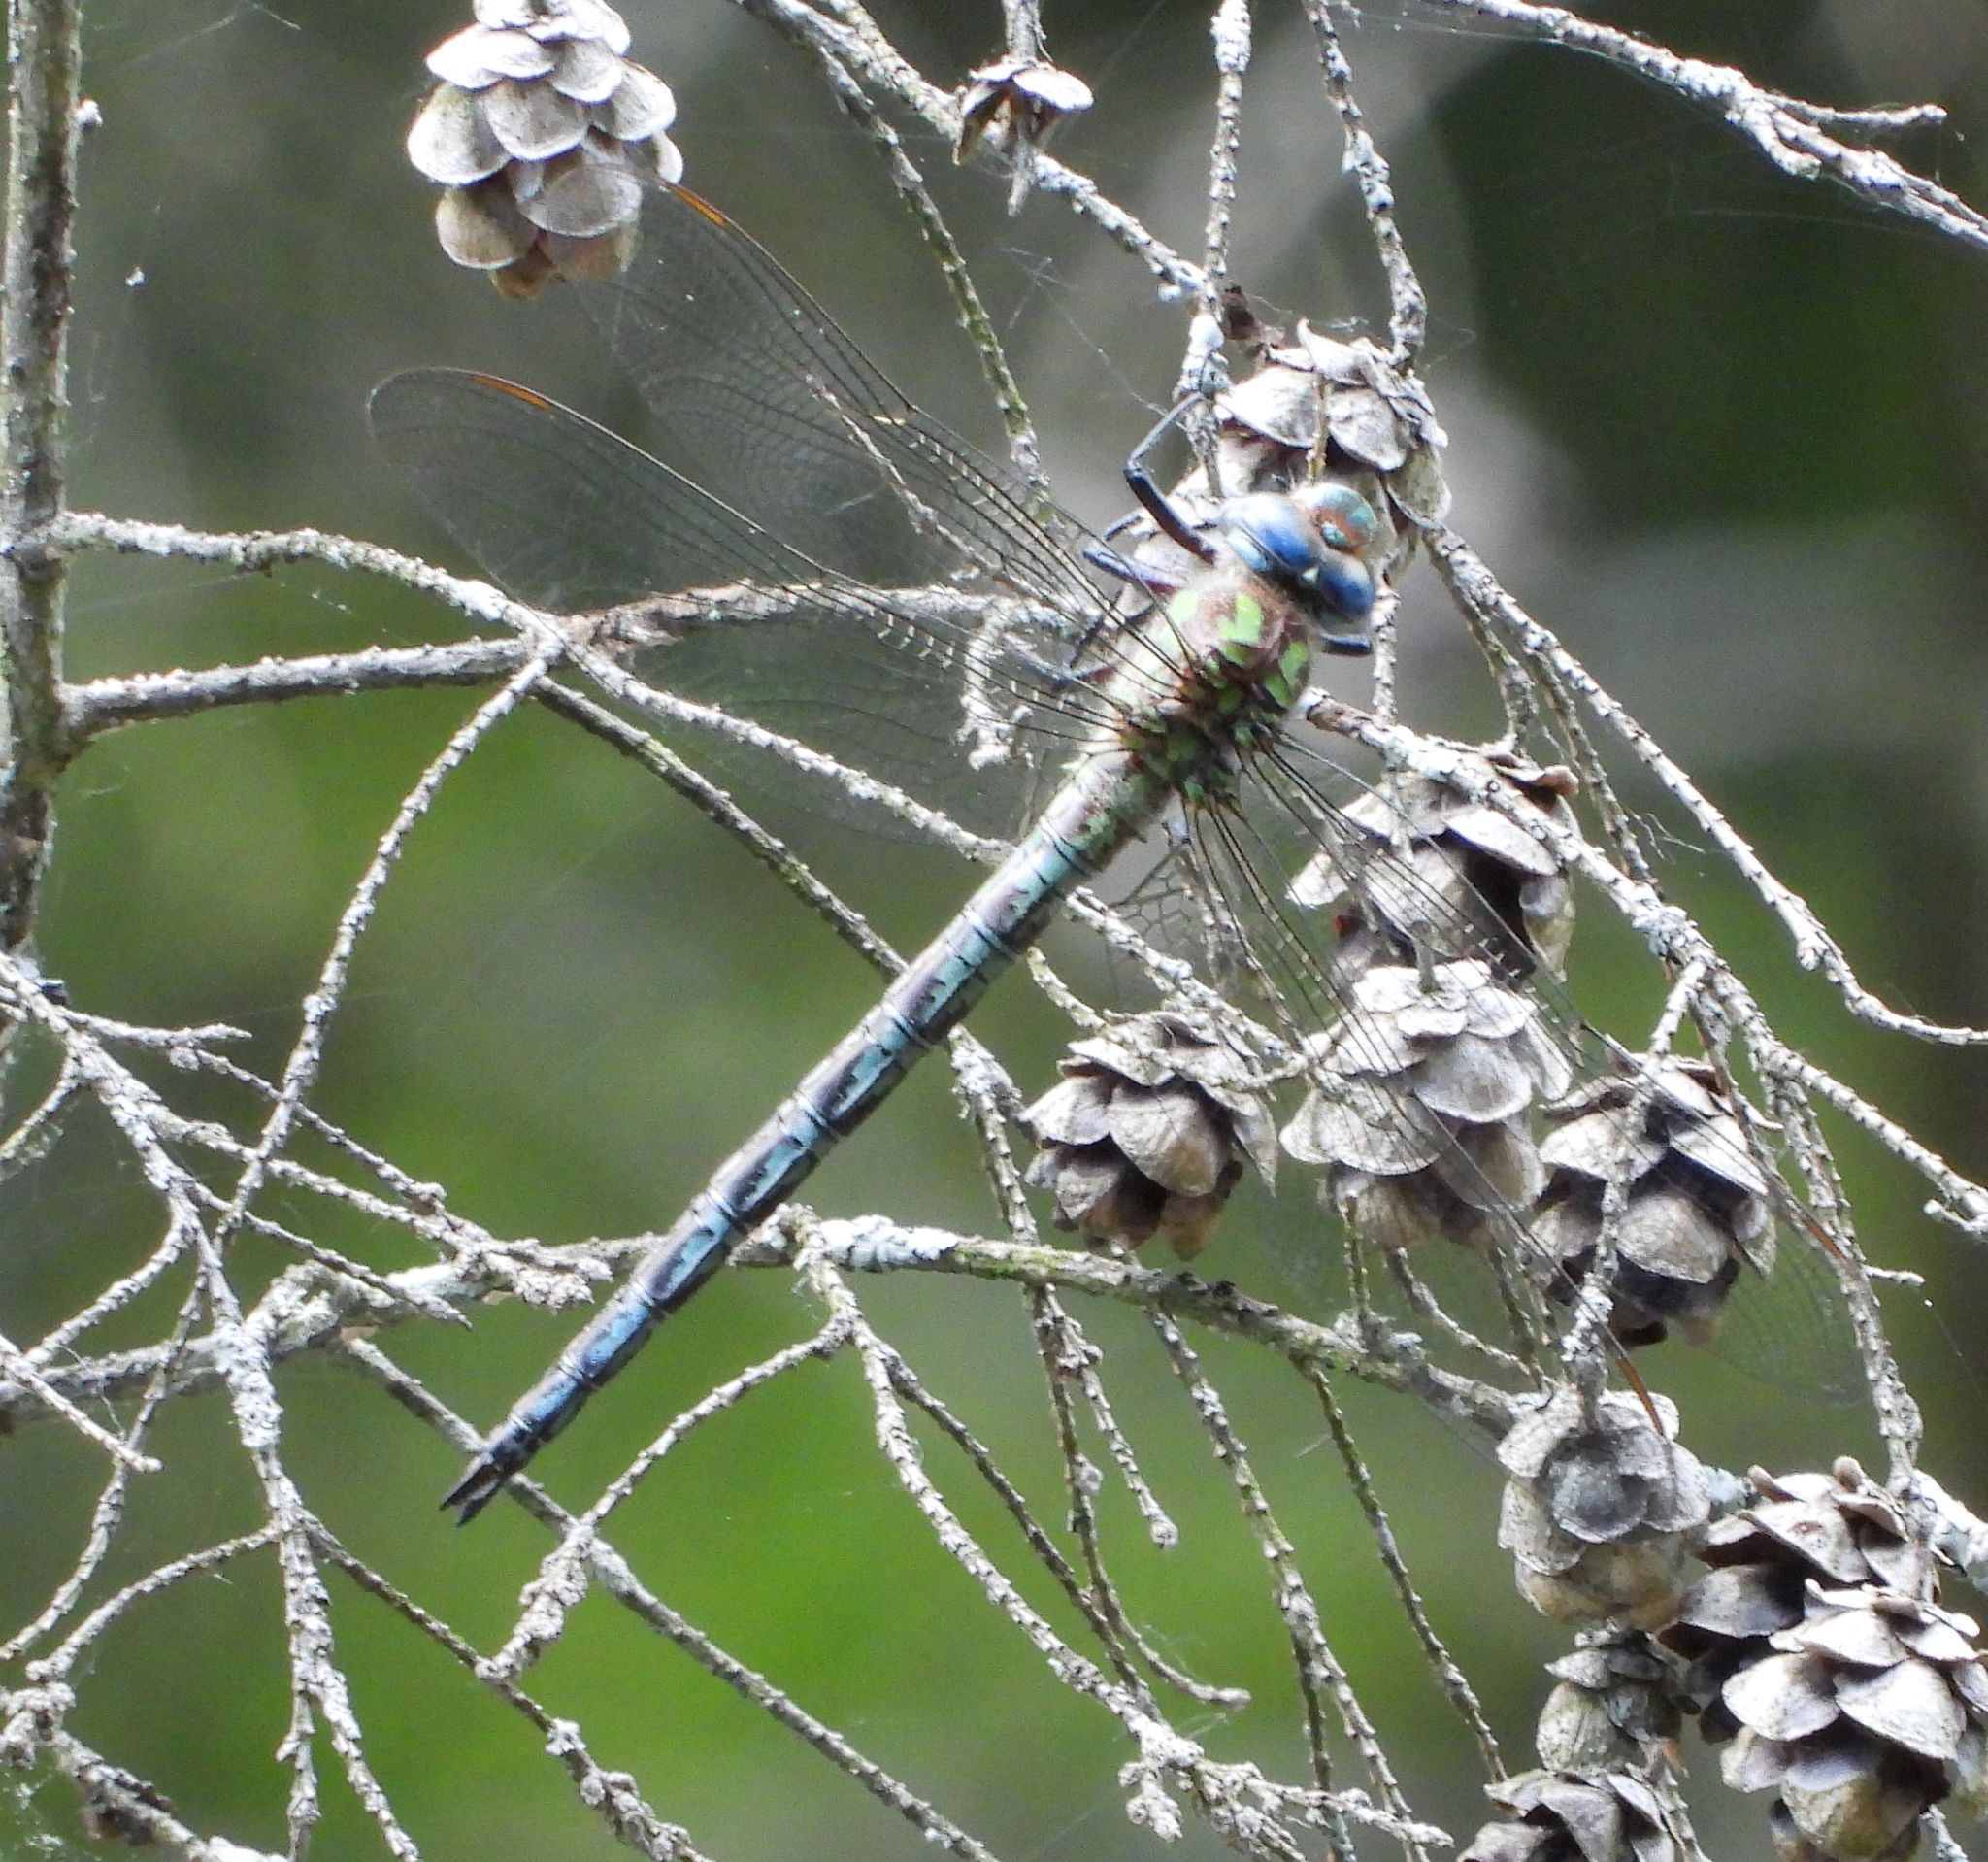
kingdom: Animalia
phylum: Arthropoda
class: Insecta
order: Odonata
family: Aeshnidae
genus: Nasiaeschna
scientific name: Nasiaeschna pentacantha
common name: Cyrano darner
